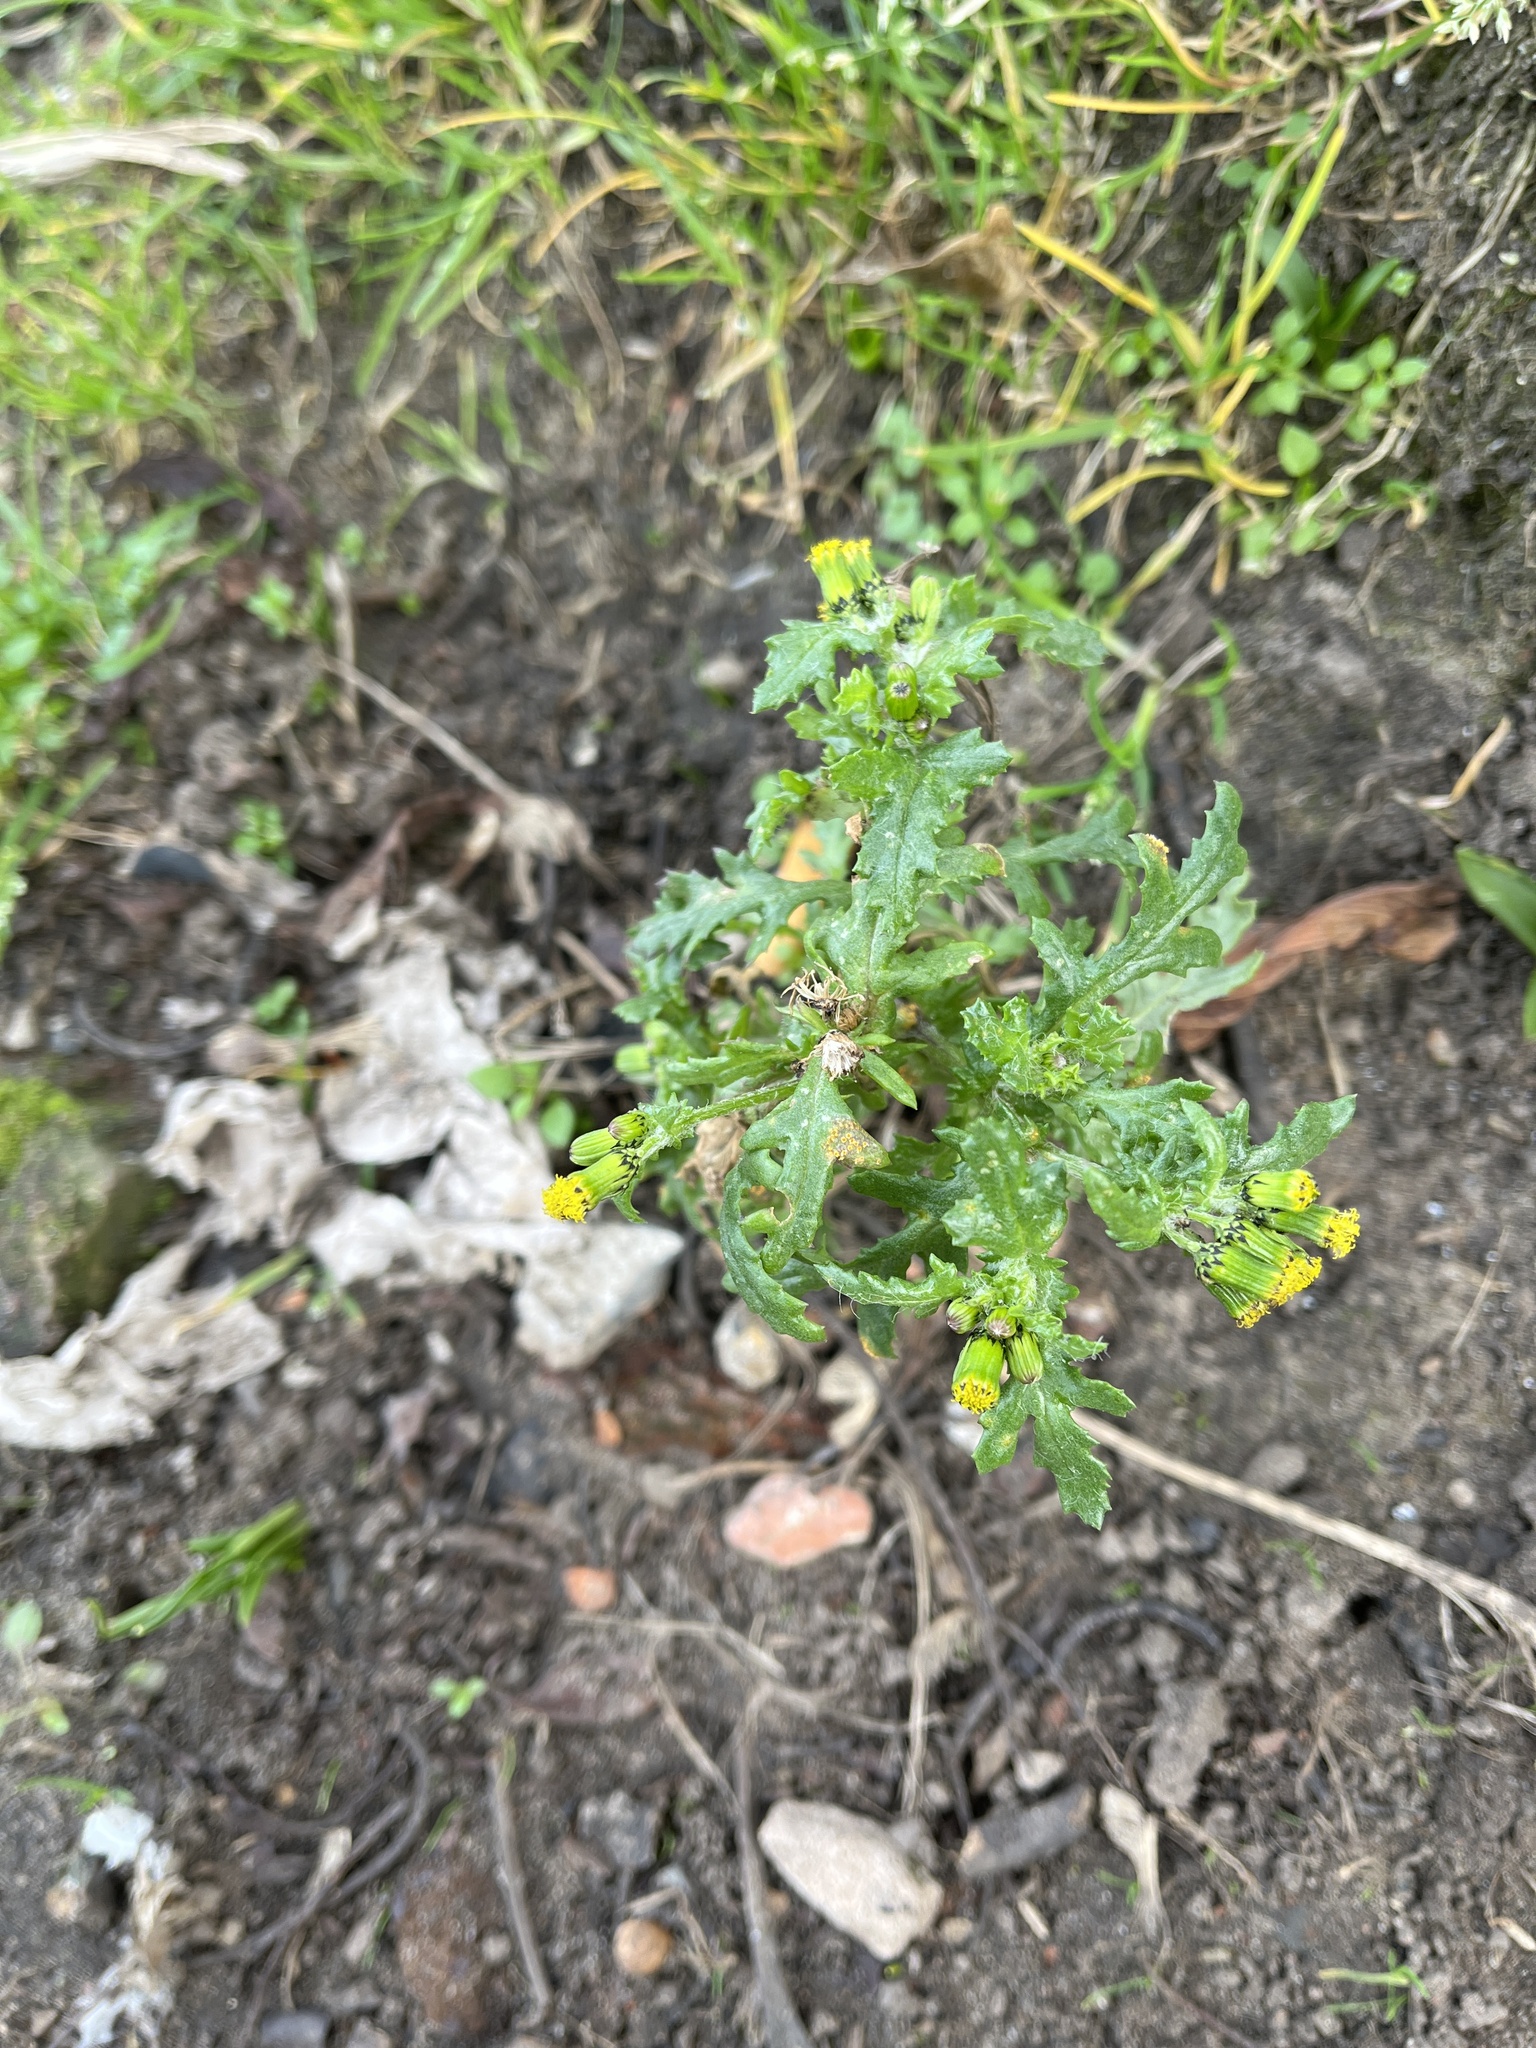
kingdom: Fungi
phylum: Basidiomycota
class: Pucciniomycetes
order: Pucciniales
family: Pucciniaceae
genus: Puccinia
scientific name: Puccinia lagenophorae
